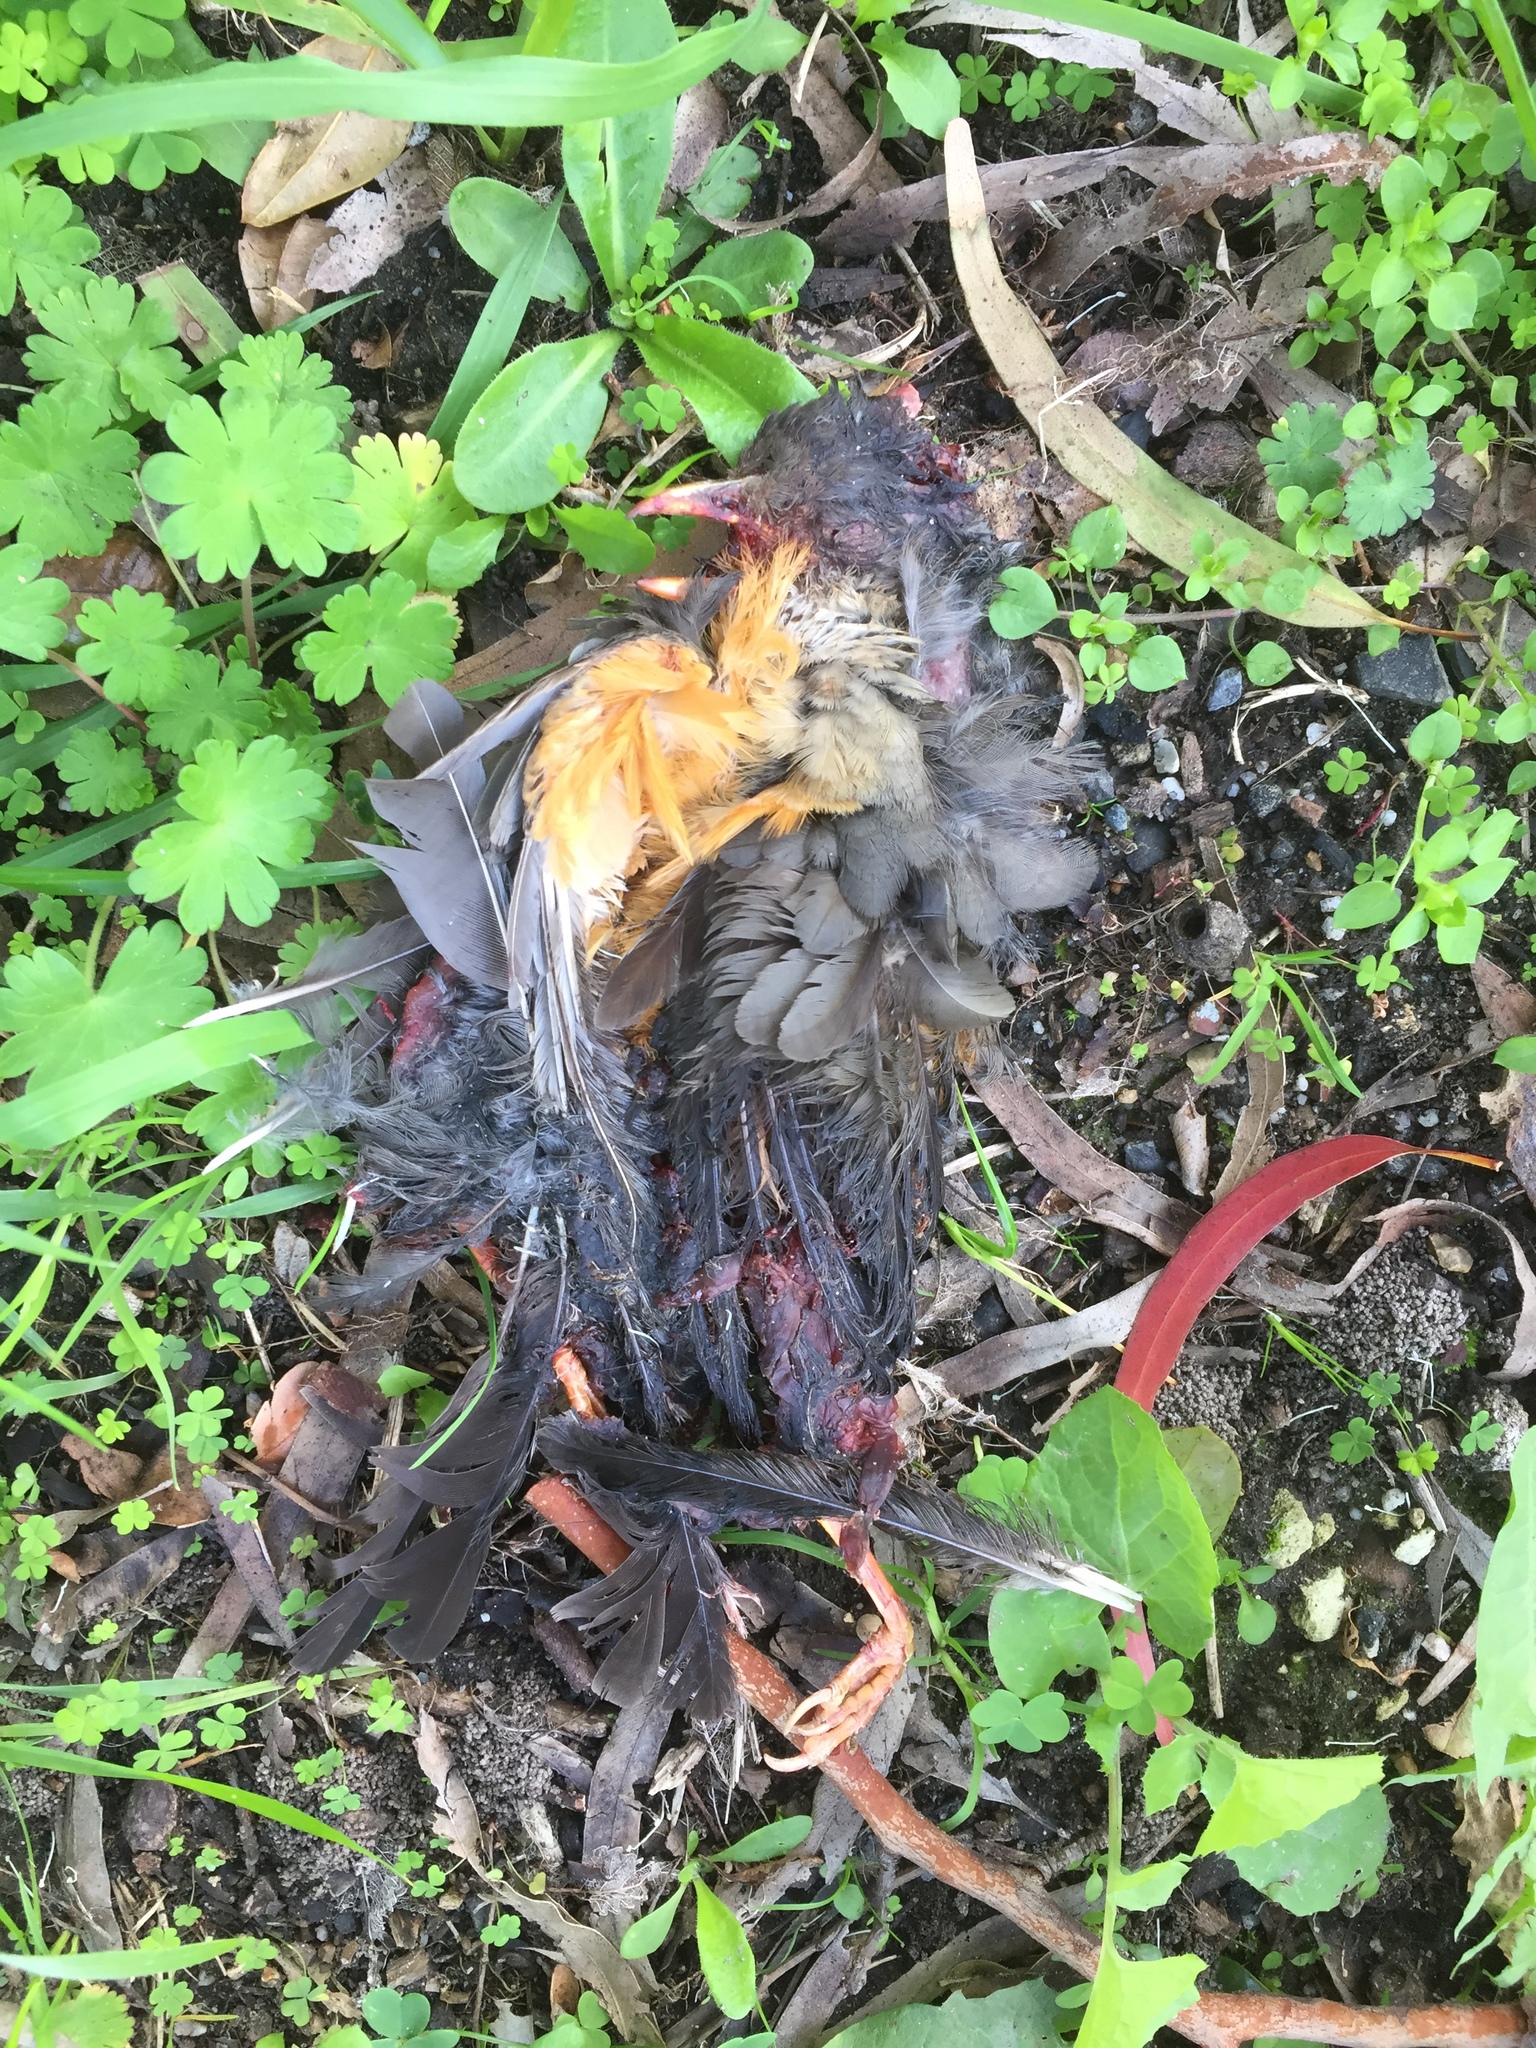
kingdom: Animalia
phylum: Chordata
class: Aves
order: Passeriformes
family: Turdidae
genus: Turdus
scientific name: Turdus olivaceus
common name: Olive thrush
